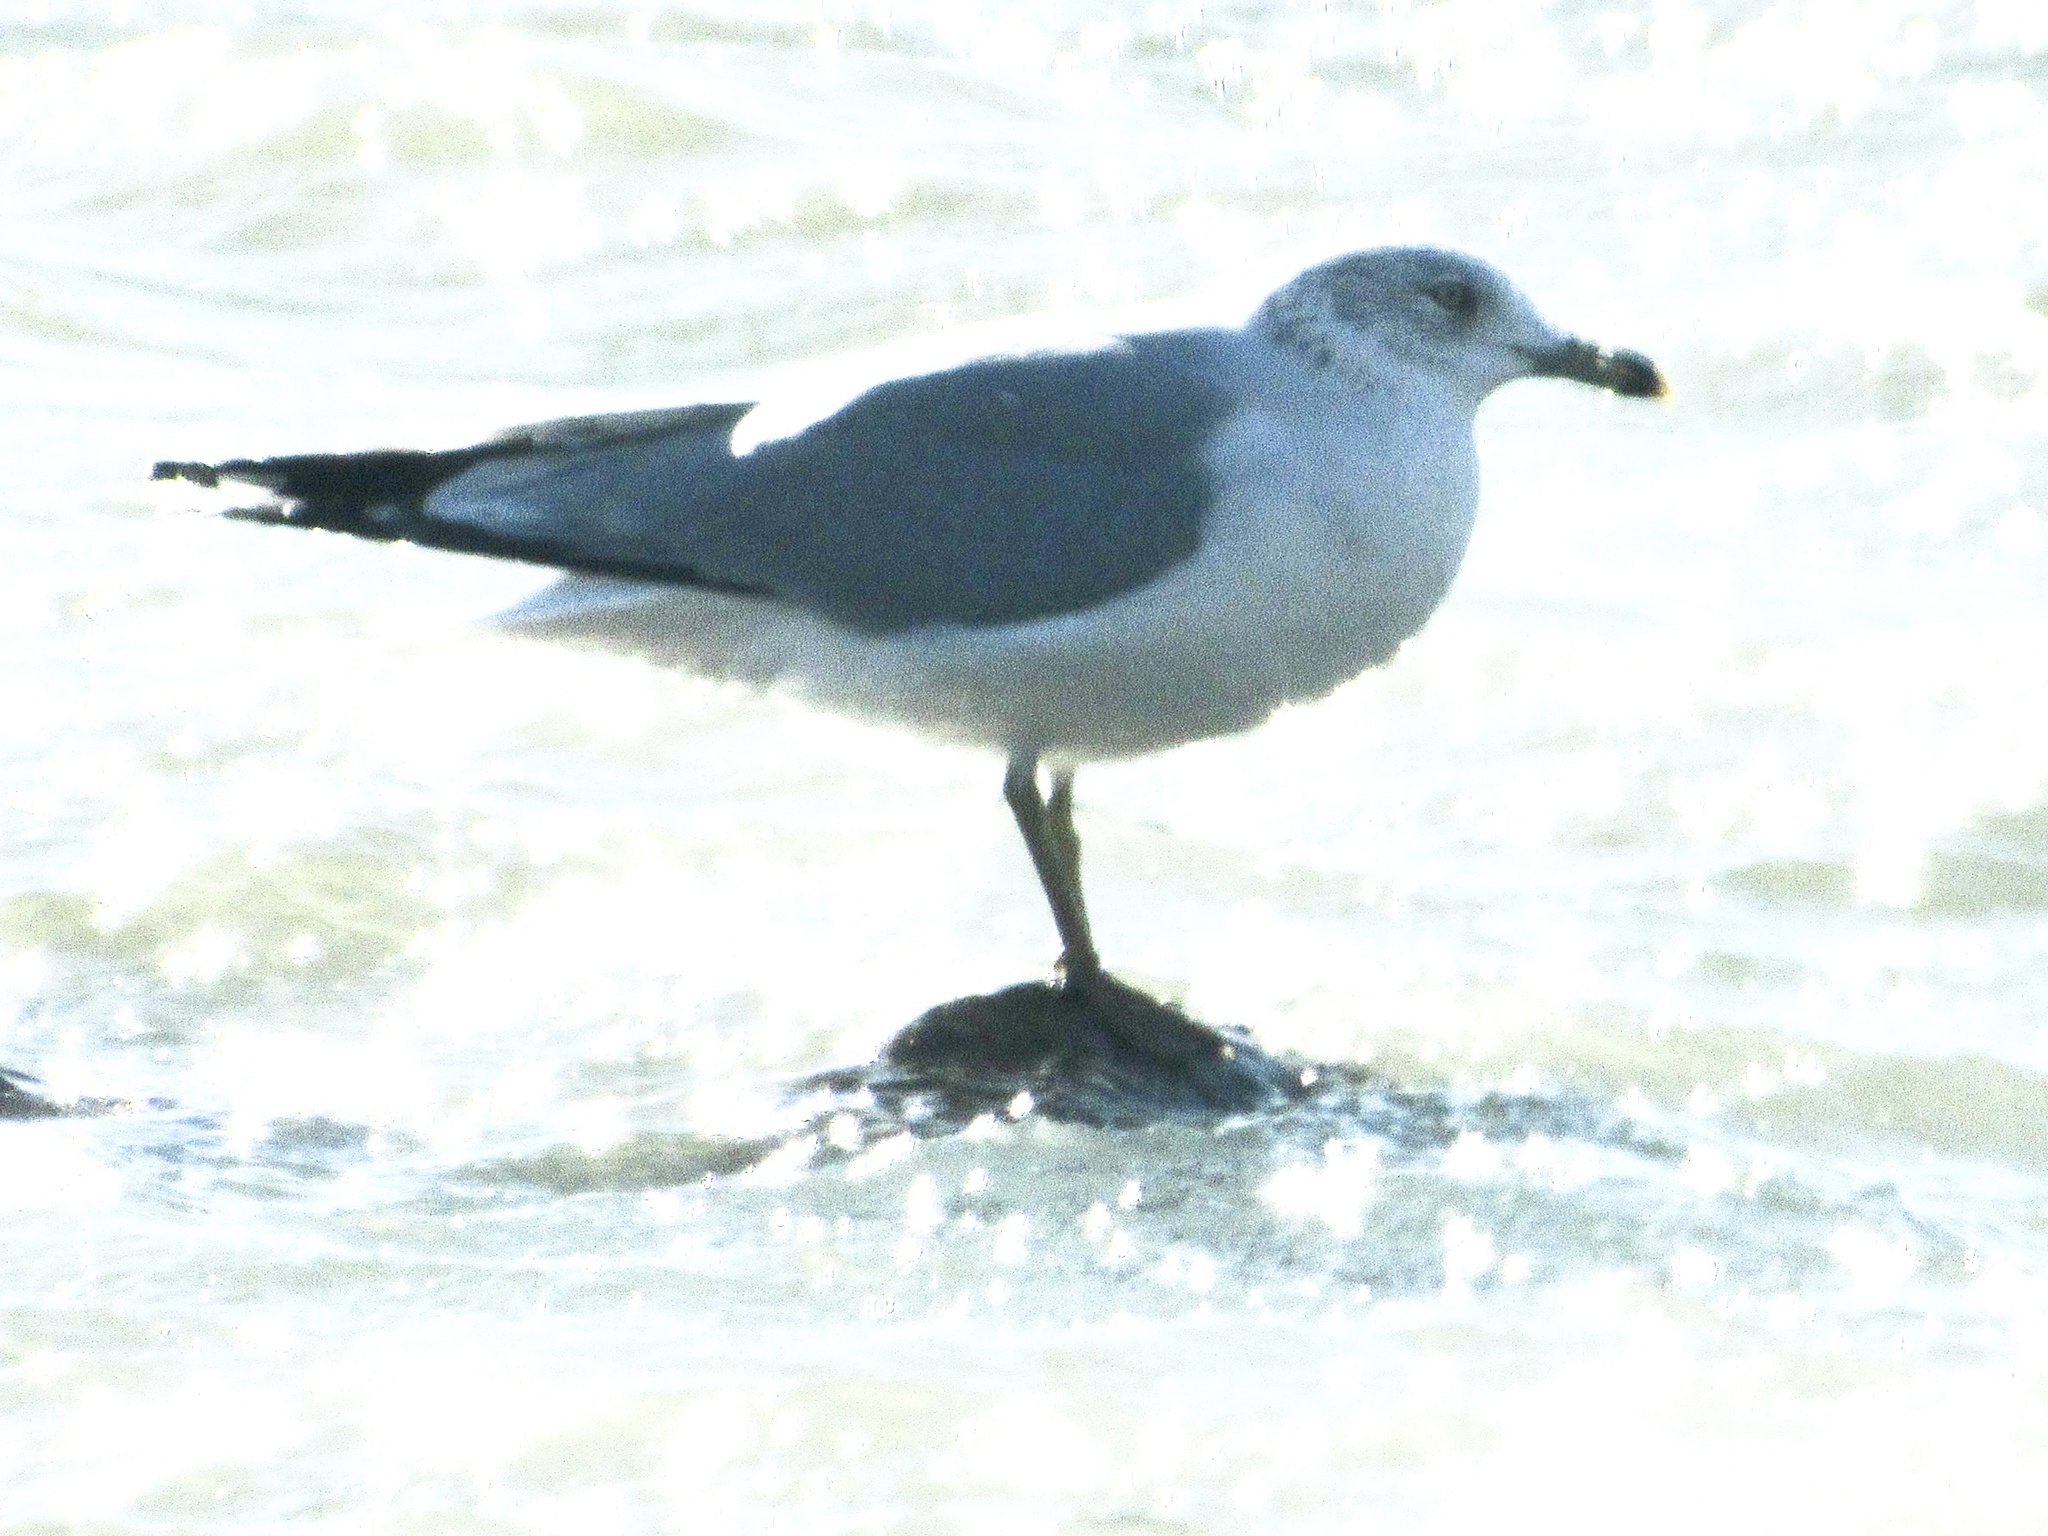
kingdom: Animalia
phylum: Chordata
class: Aves
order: Charadriiformes
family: Laridae
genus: Larus
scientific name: Larus delawarensis
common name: Ring-billed gull
